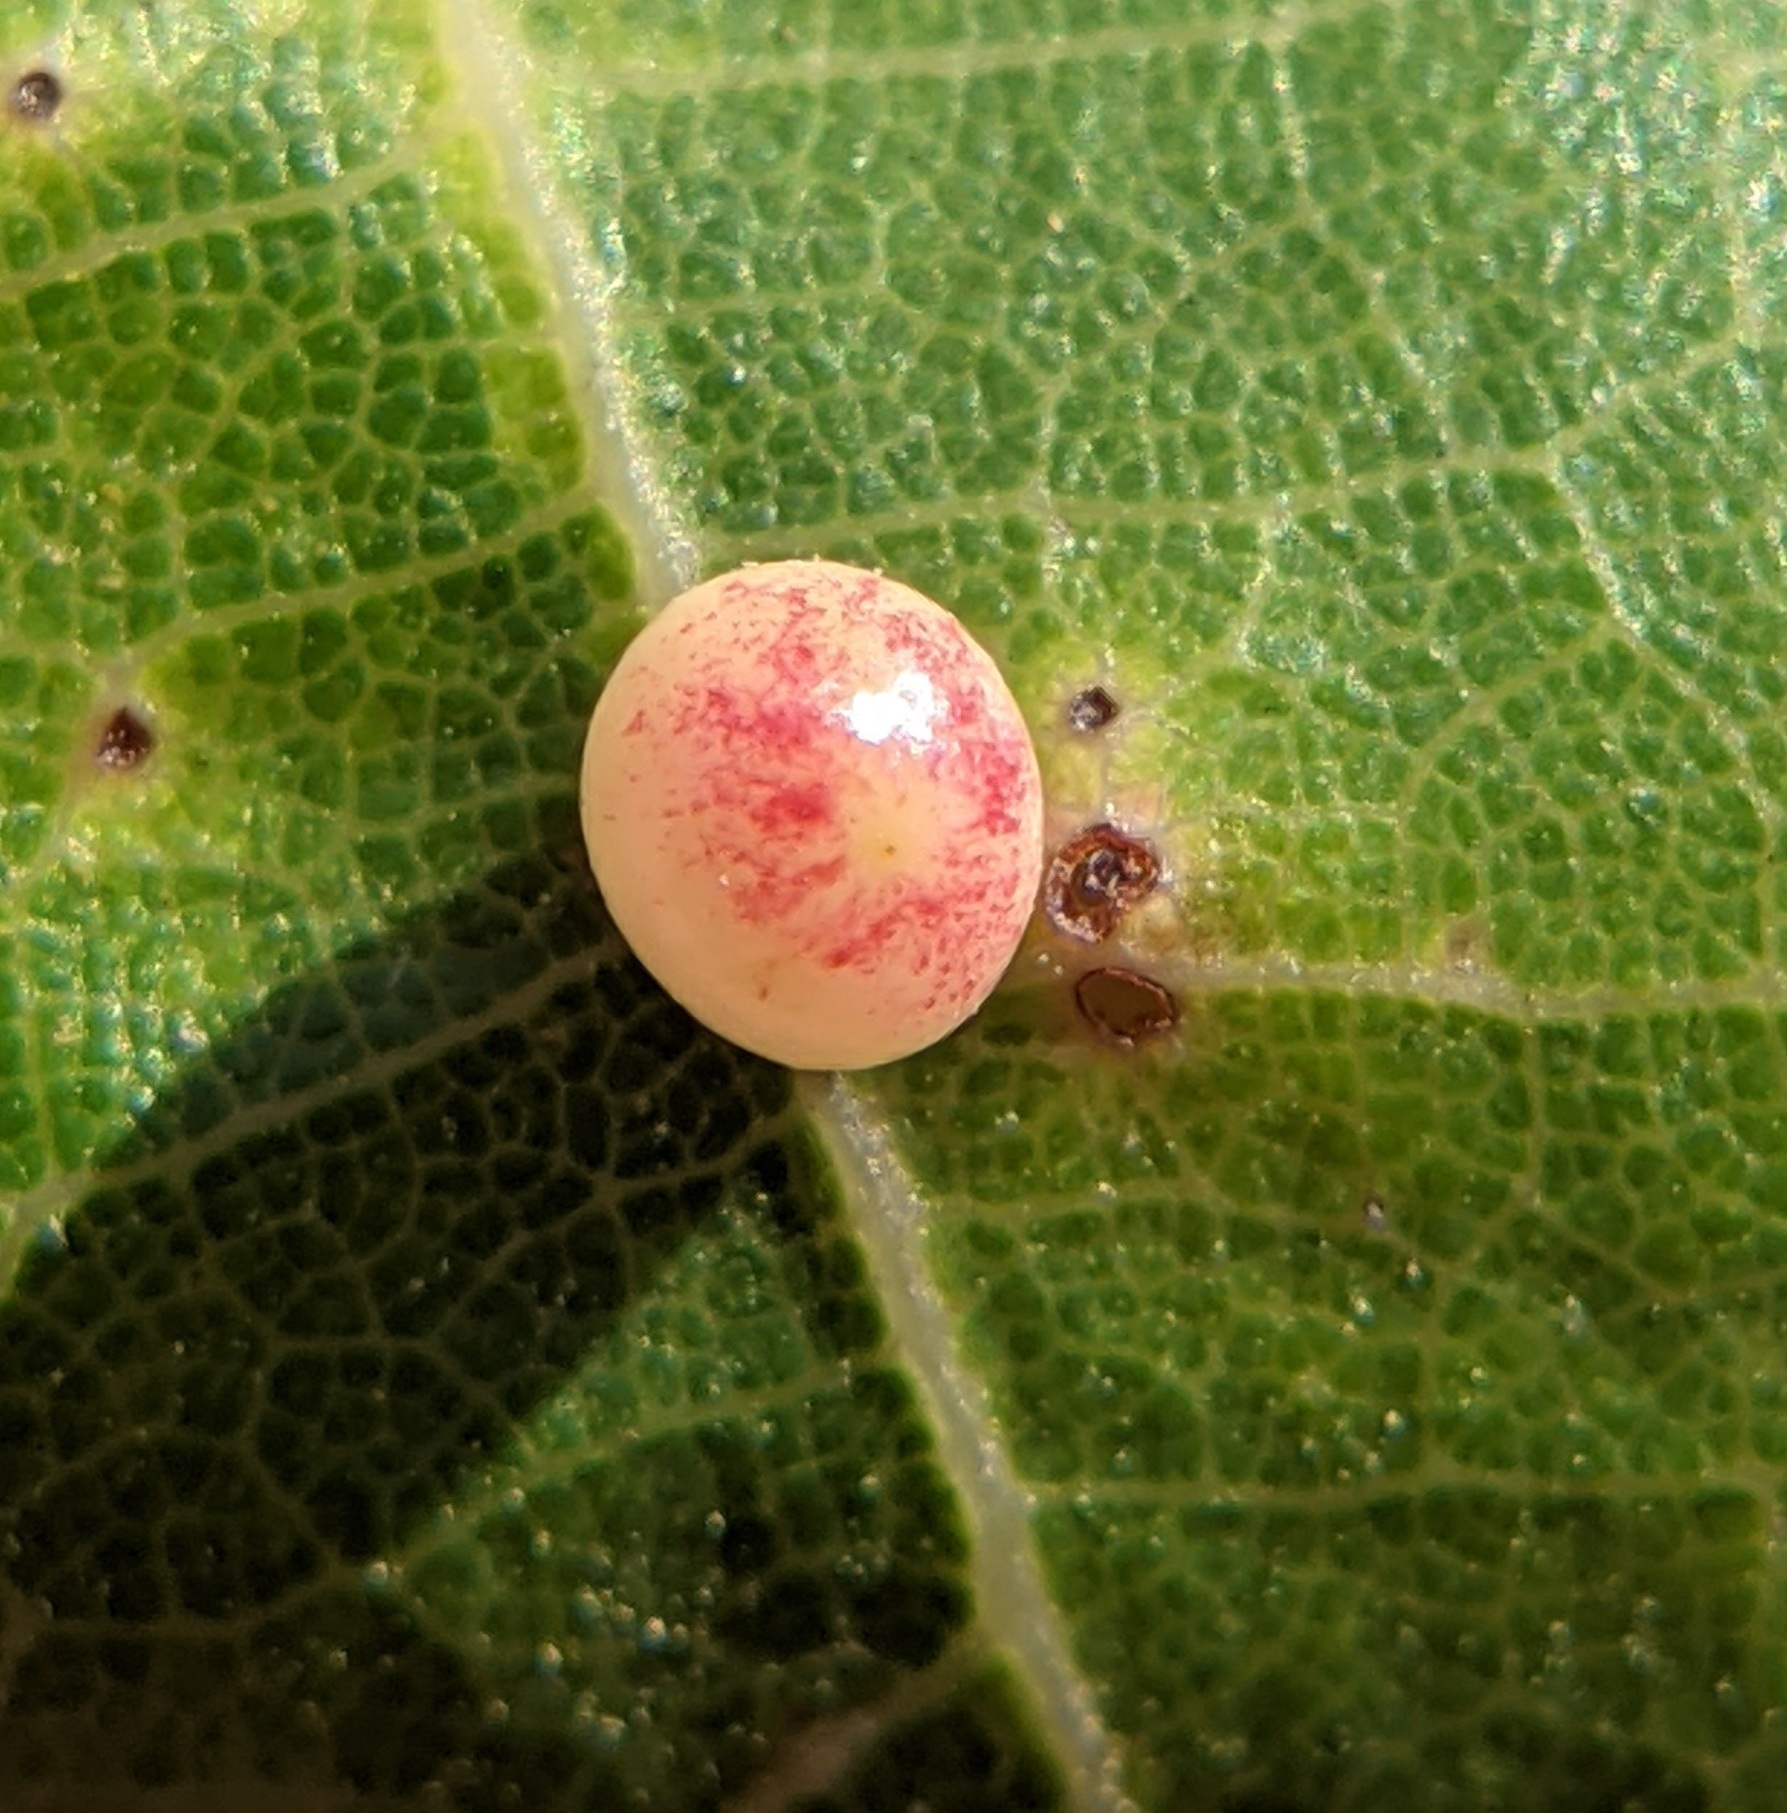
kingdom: Animalia
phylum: Arthropoda
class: Insecta
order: Hymenoptera
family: Cynipidae
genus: Zopheroteras
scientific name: Zopheroteras
